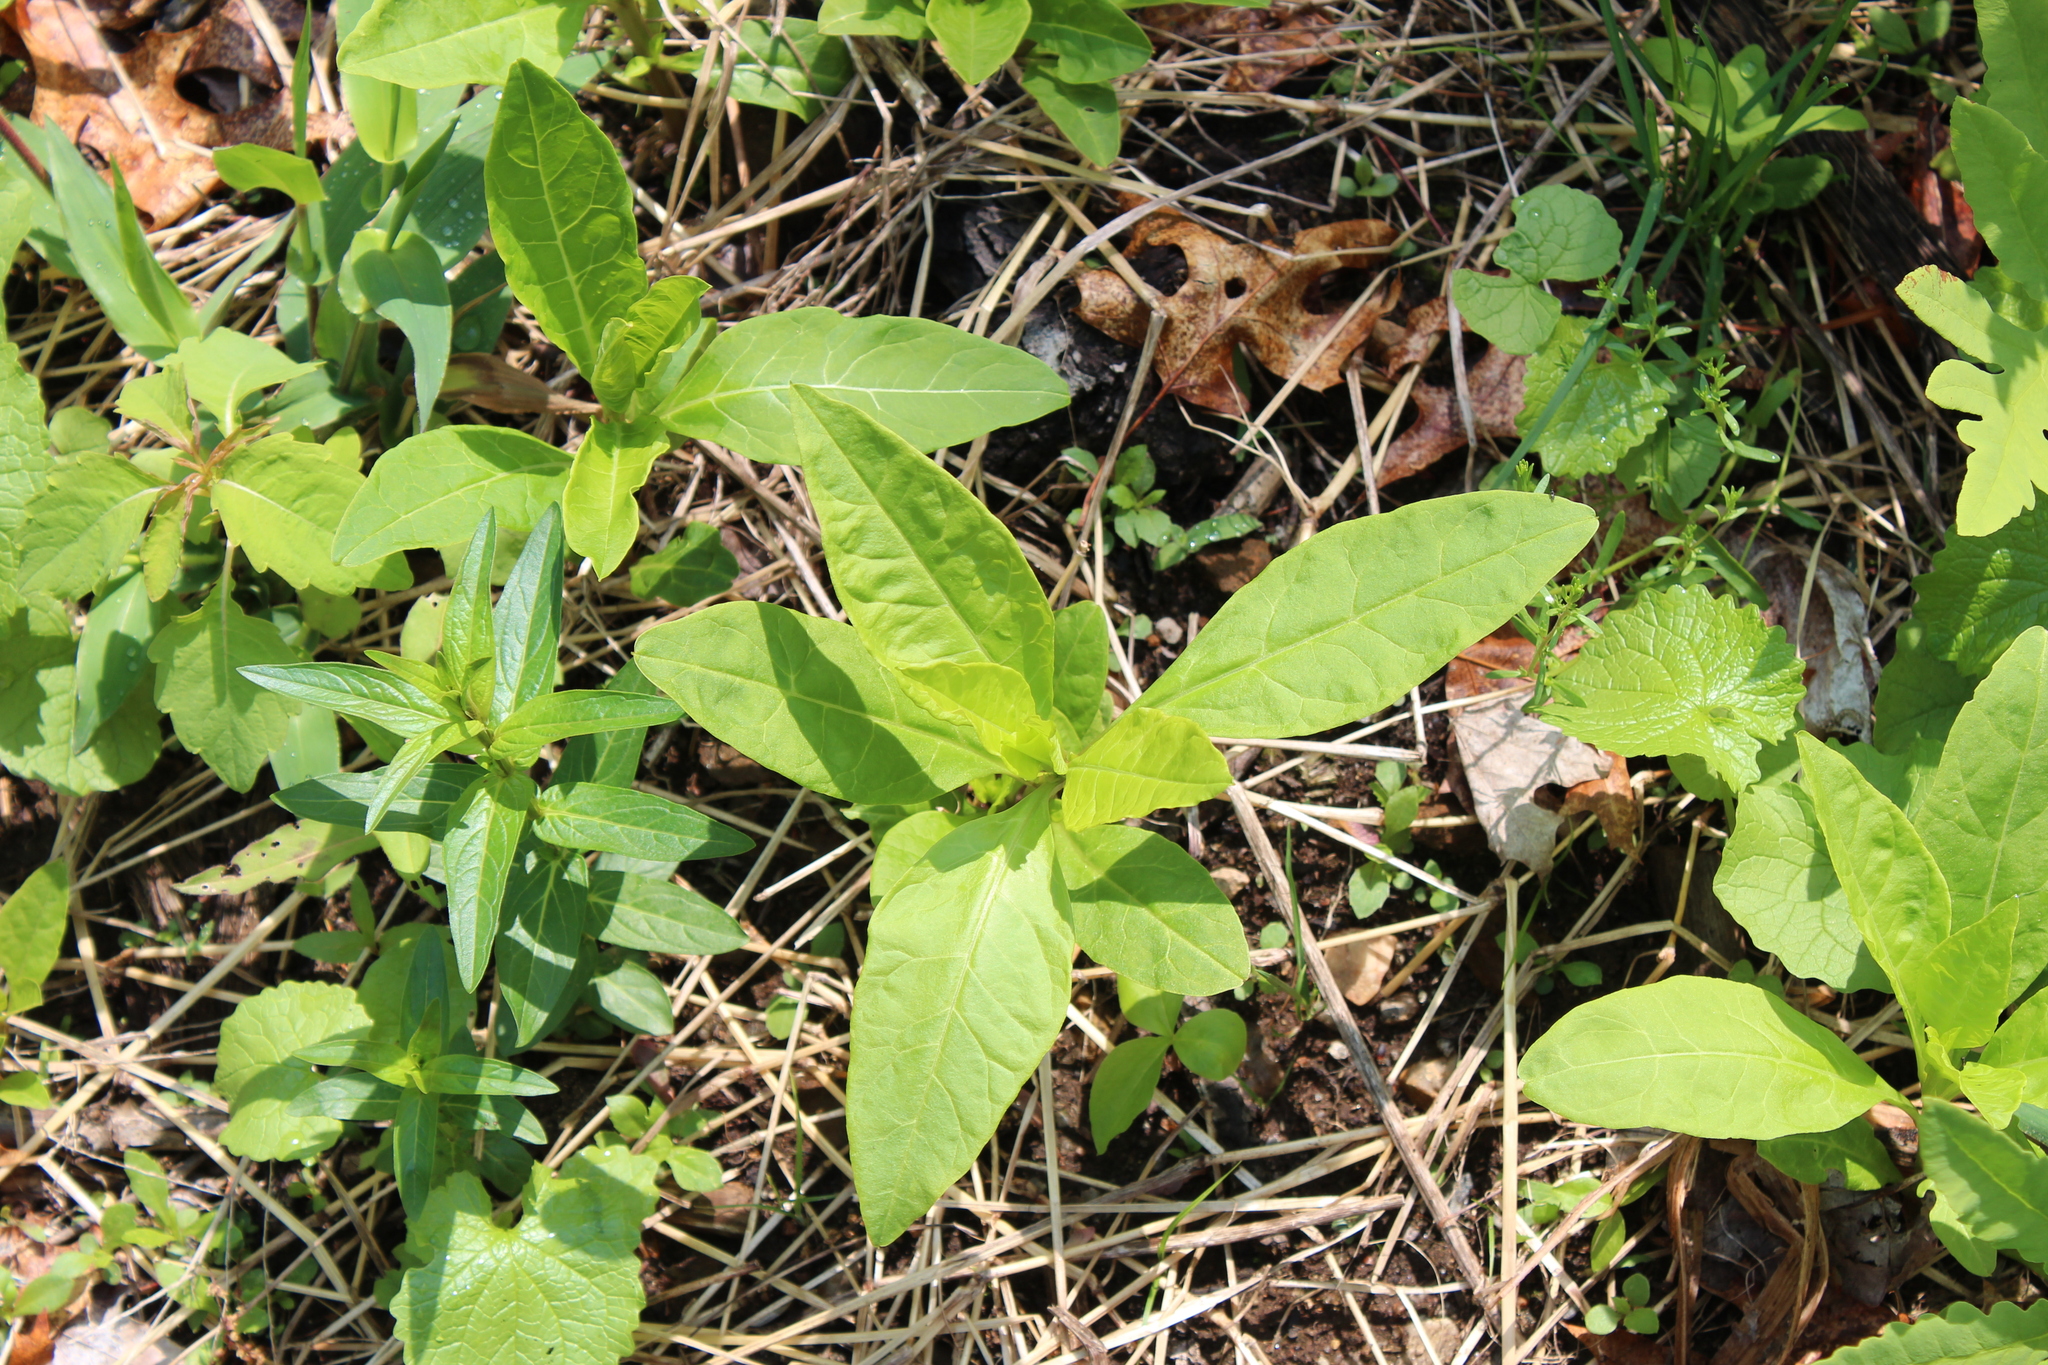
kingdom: Plantae
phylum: Tracheophyta
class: Magnoliopsida
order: Caryophyllales
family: Phytolaccaceae
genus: Phytolacca
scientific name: Phytolacca americana
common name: American pokeweed
